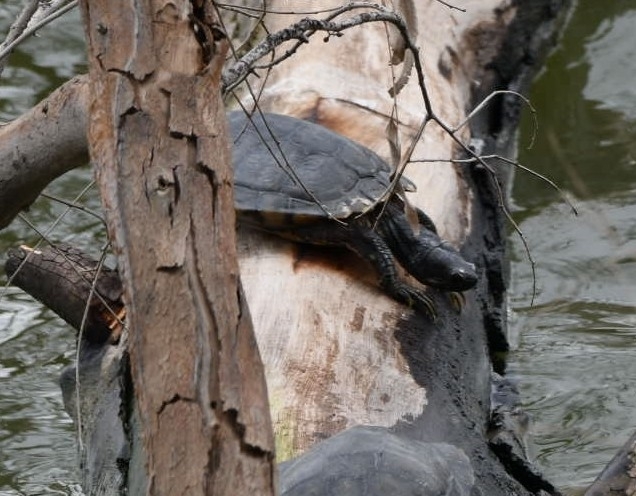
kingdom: Animalia
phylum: Chordata
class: Testudines
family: Emydidae
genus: Trachemys
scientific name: Trachemys scripta
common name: Slider
